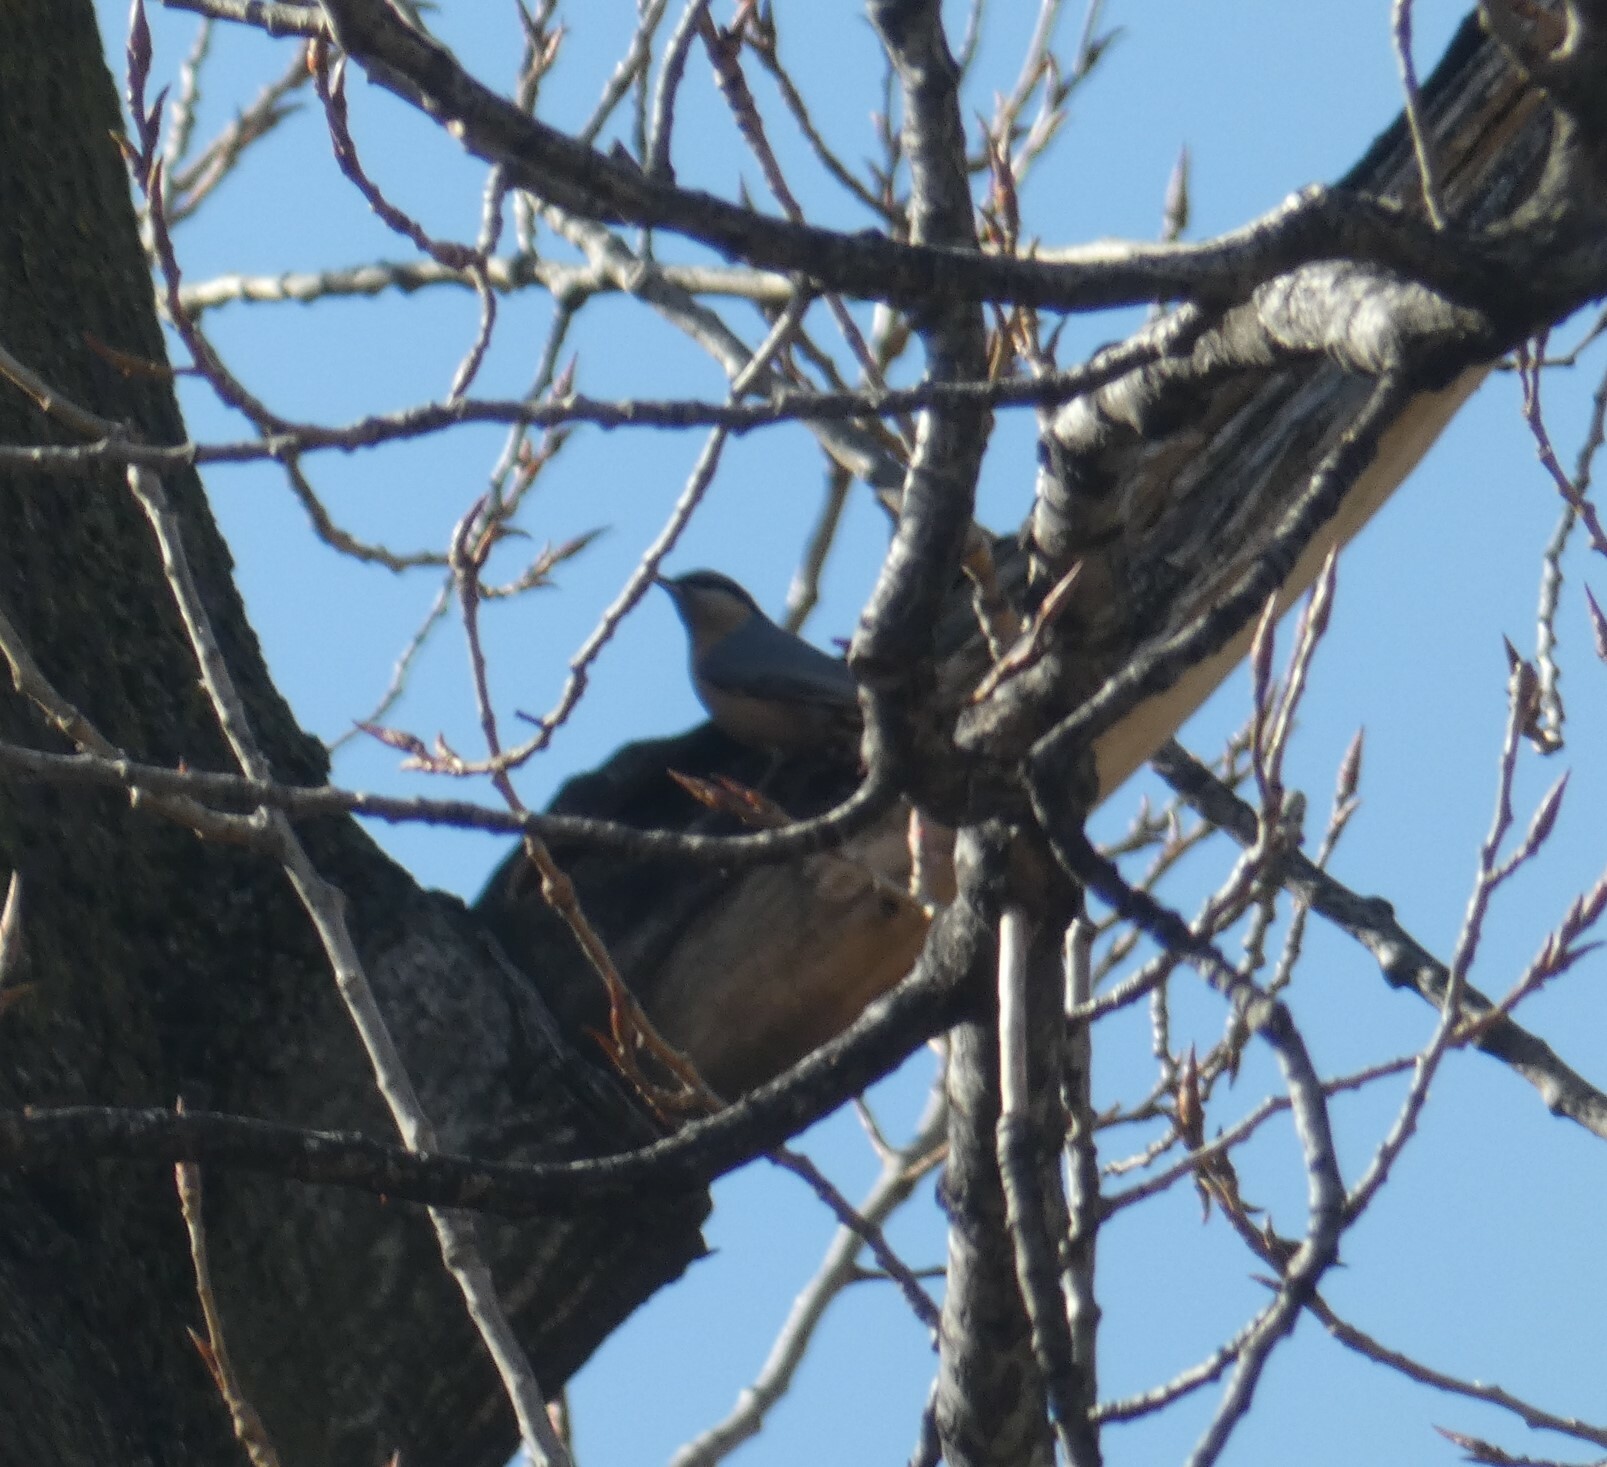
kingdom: Animalia
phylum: Chordata
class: Aves
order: Passeriformes
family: Sittidae
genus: Sitta
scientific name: Sitta europaea
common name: Eurasian nuthatch
